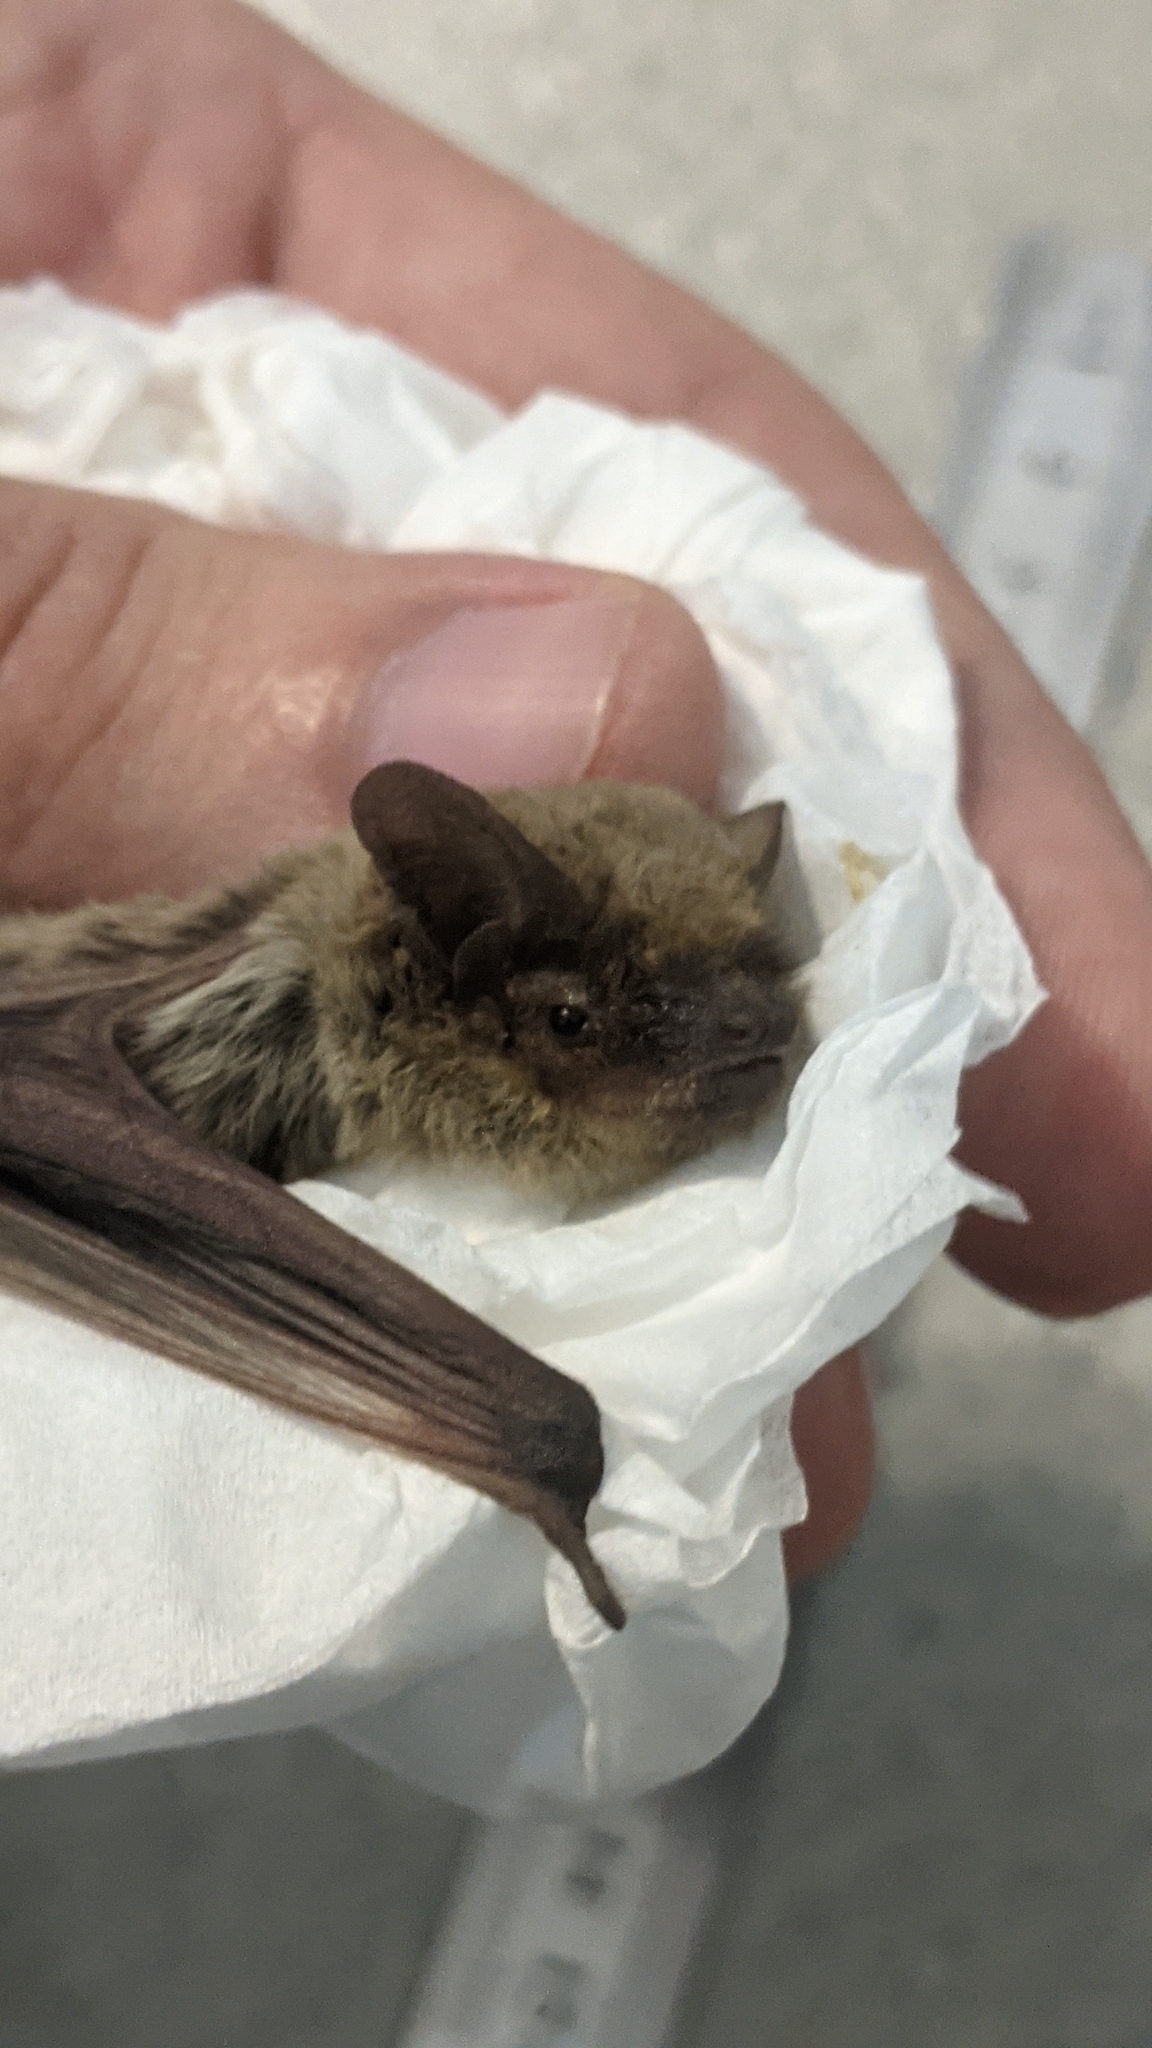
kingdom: Animalia
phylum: Chordata
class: Mammalia
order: Chiroptera
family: Vespertilionidae
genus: Pipistrellus
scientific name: Pipistrellus kuhlii
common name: Kuhl's pipistrelle
